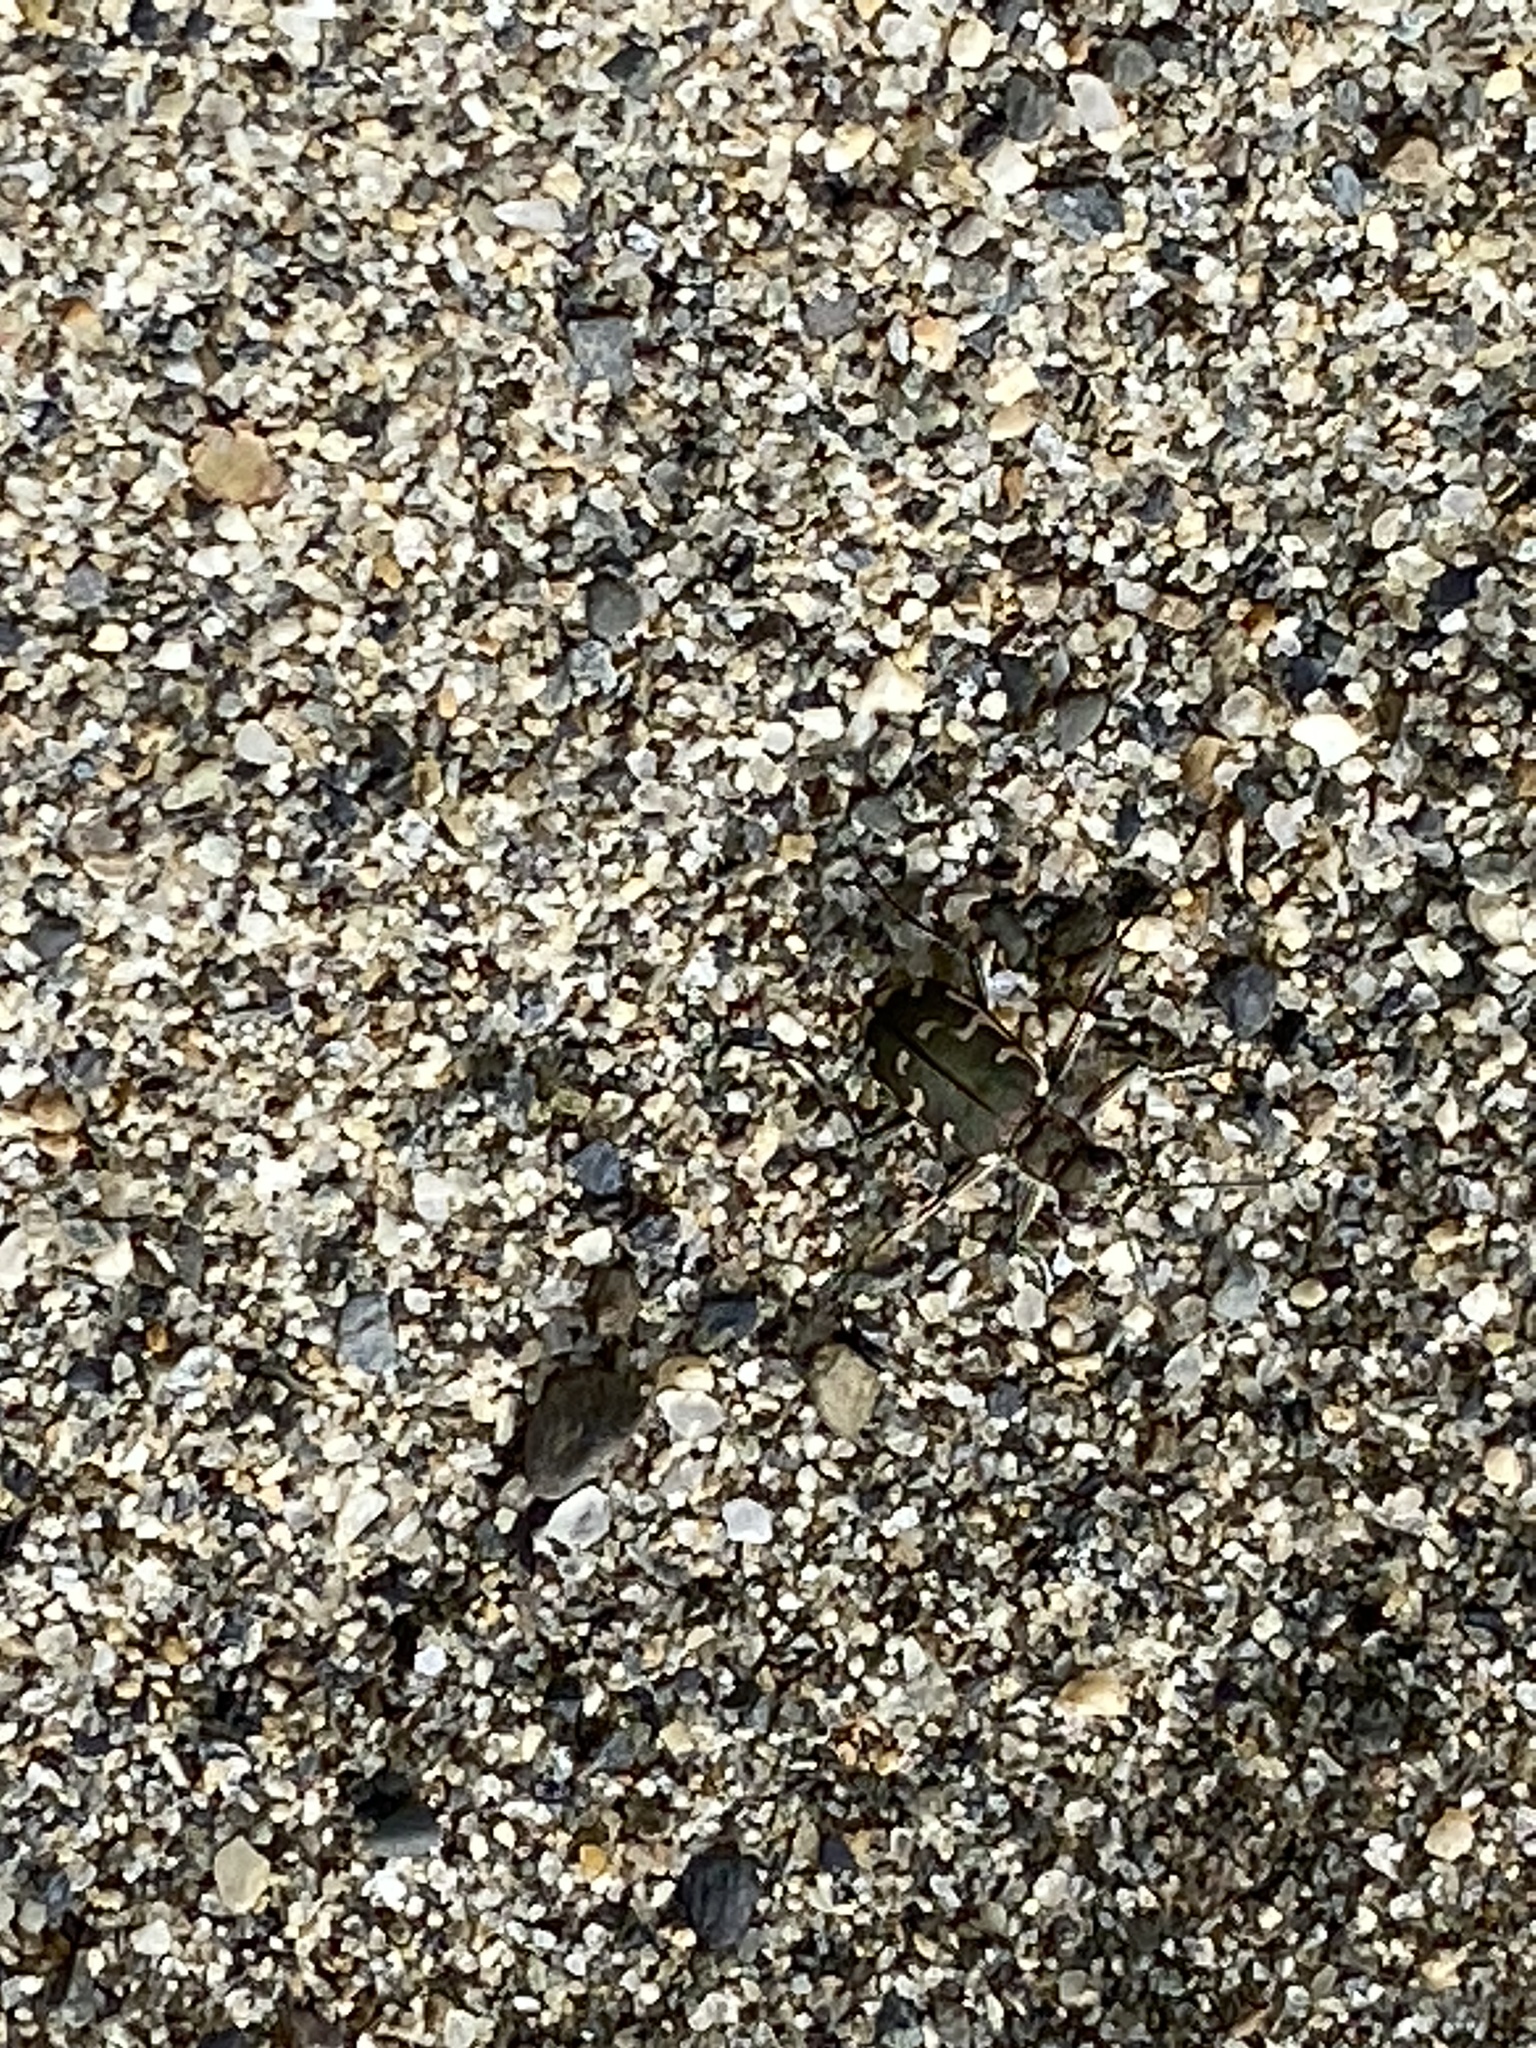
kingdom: Animalia
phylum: Arthropoda
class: Insecta
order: Coleoptera
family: Carabidae
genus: Cicindela
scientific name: Cicindela repanda
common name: Bronzed tiger beetle
